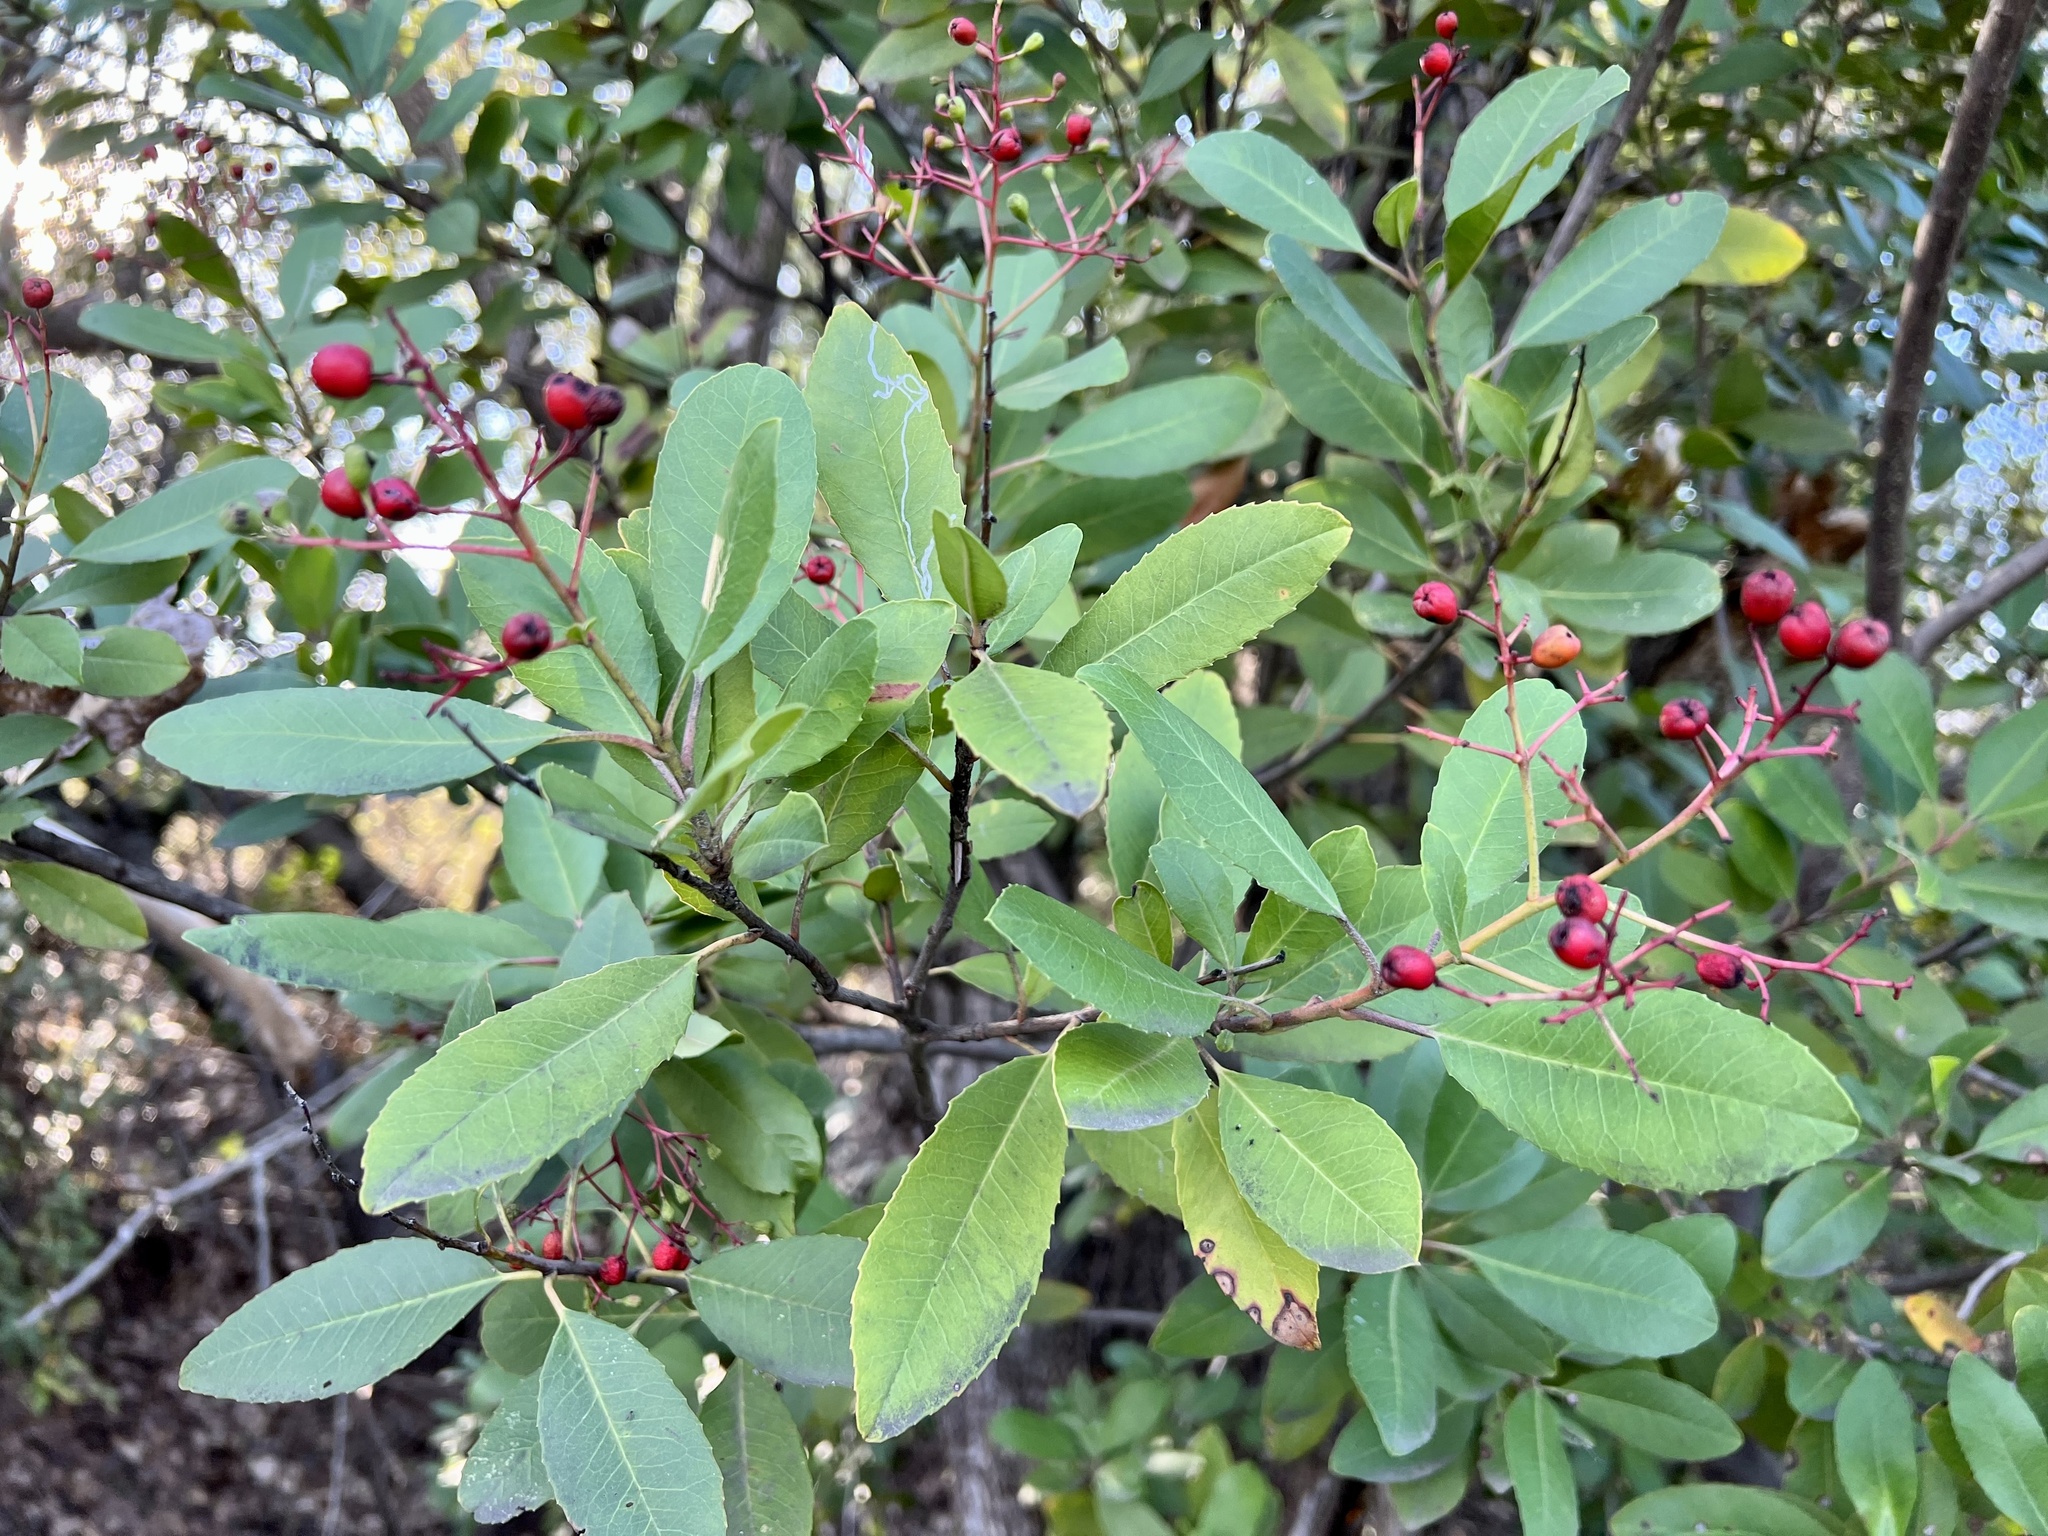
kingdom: Plantae
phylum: Tracheophyta
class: Magnoliopsida
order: Rosales
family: Rosaceae
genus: Heteromeles
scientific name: Heteromeles arbutifolia
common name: California-holly
